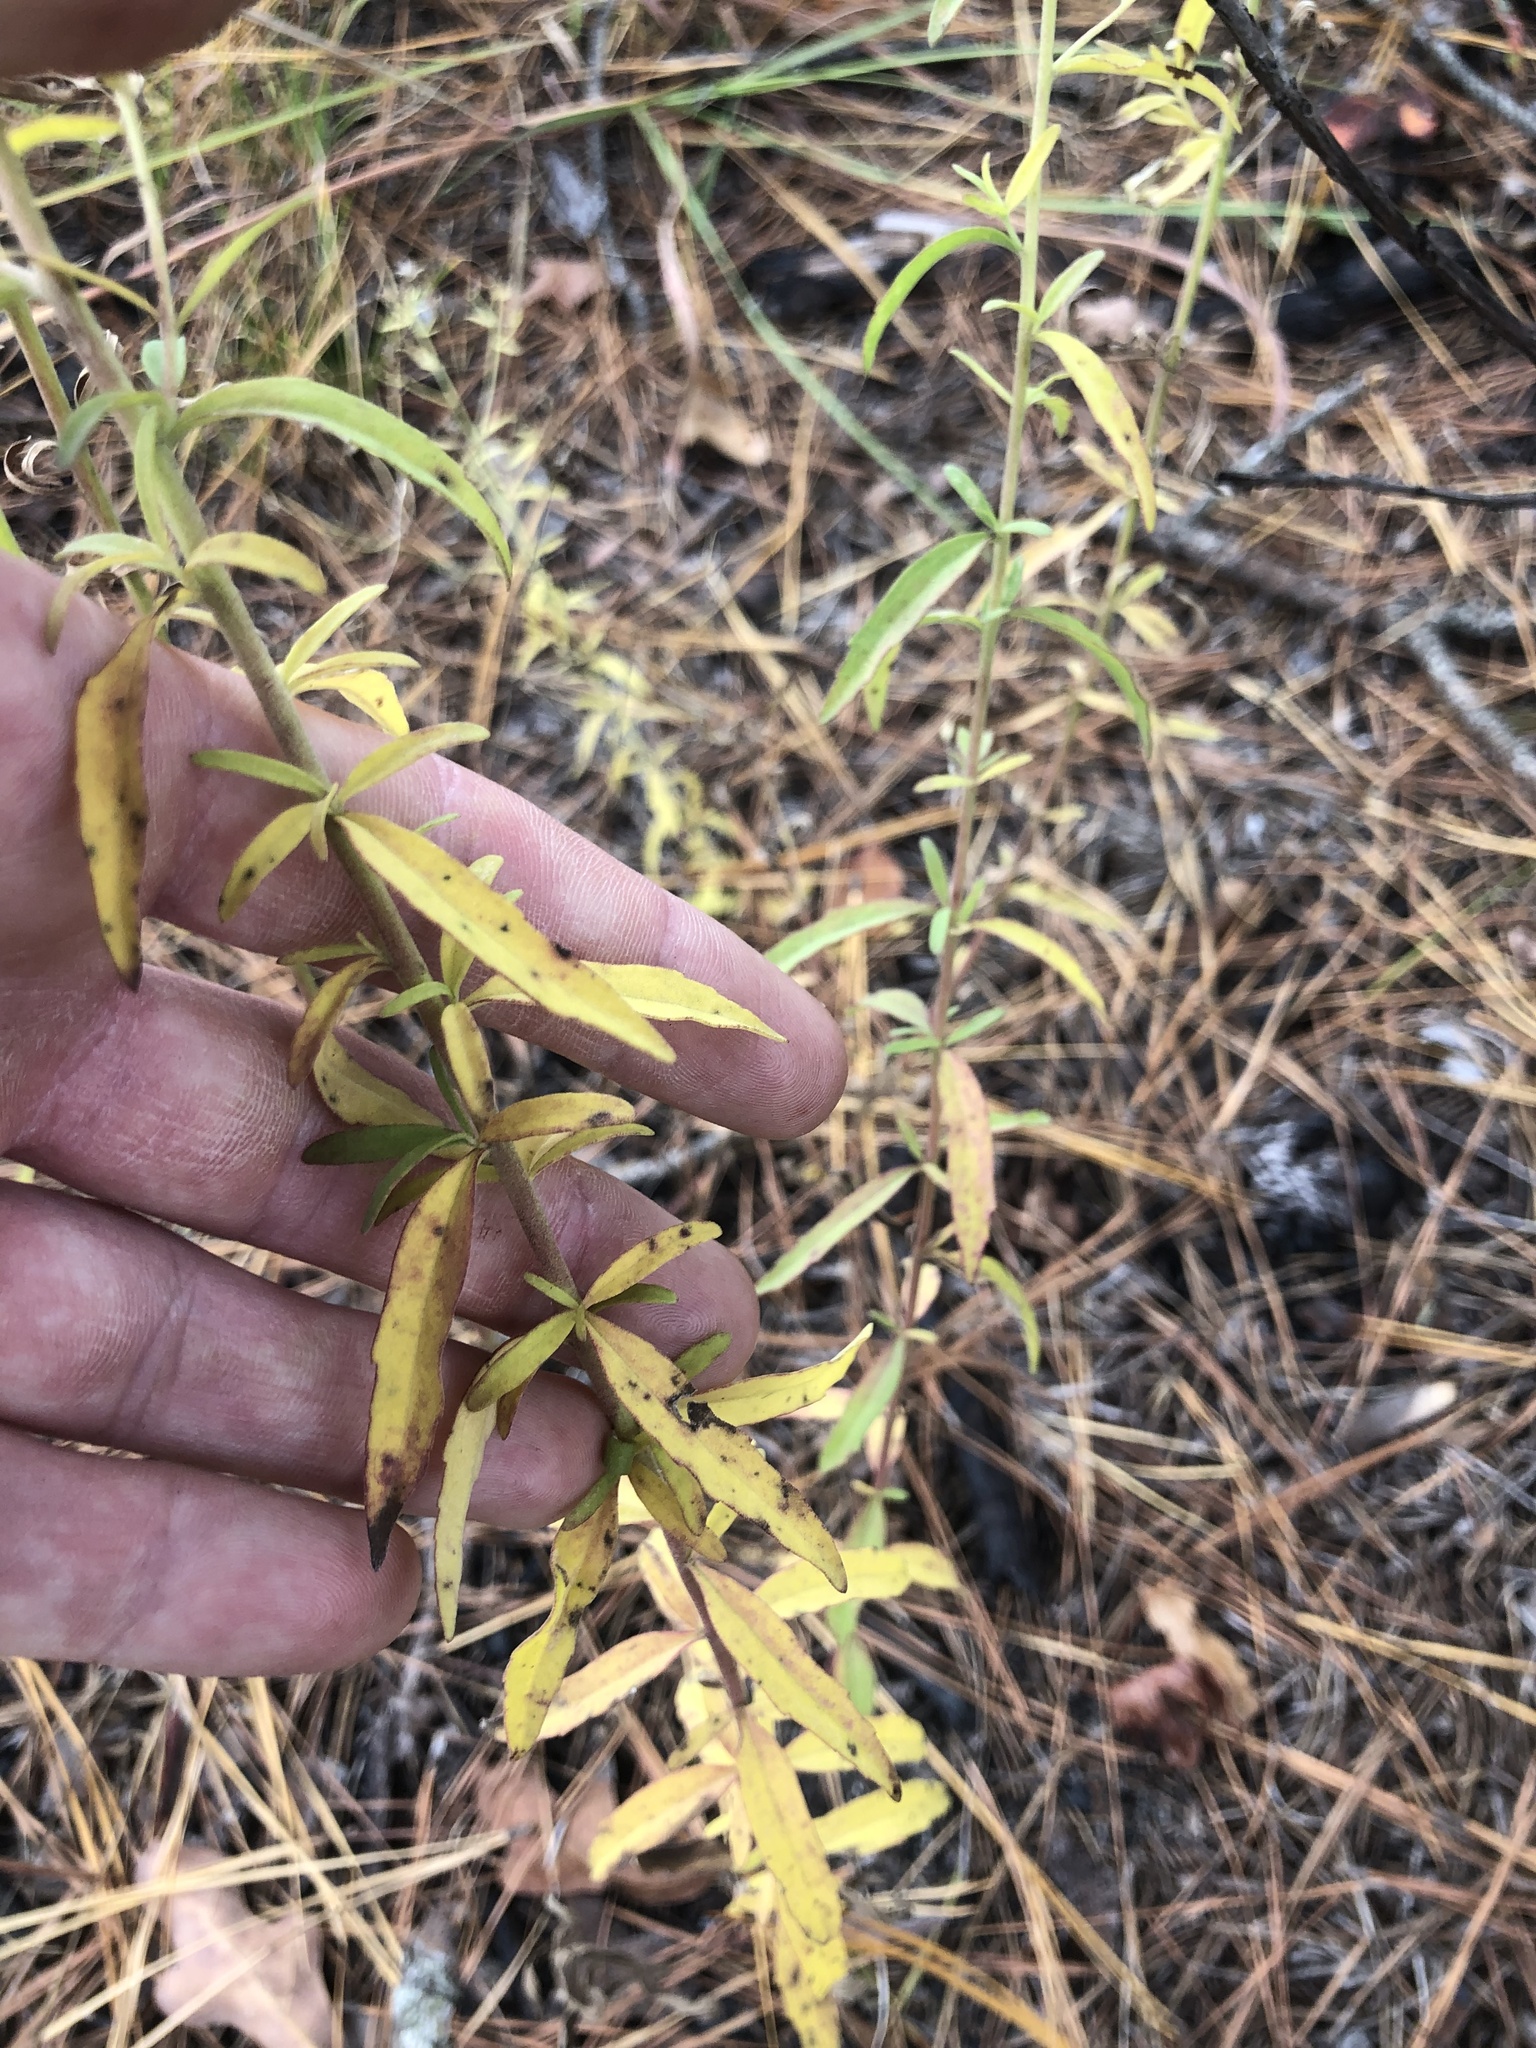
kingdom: Plantae
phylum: Tracheophyta
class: Magnoliopsida
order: Asterales
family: Asteraceae
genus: Eupatorium
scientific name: Eupatorium mohrii
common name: Mohr's thoroughwort
